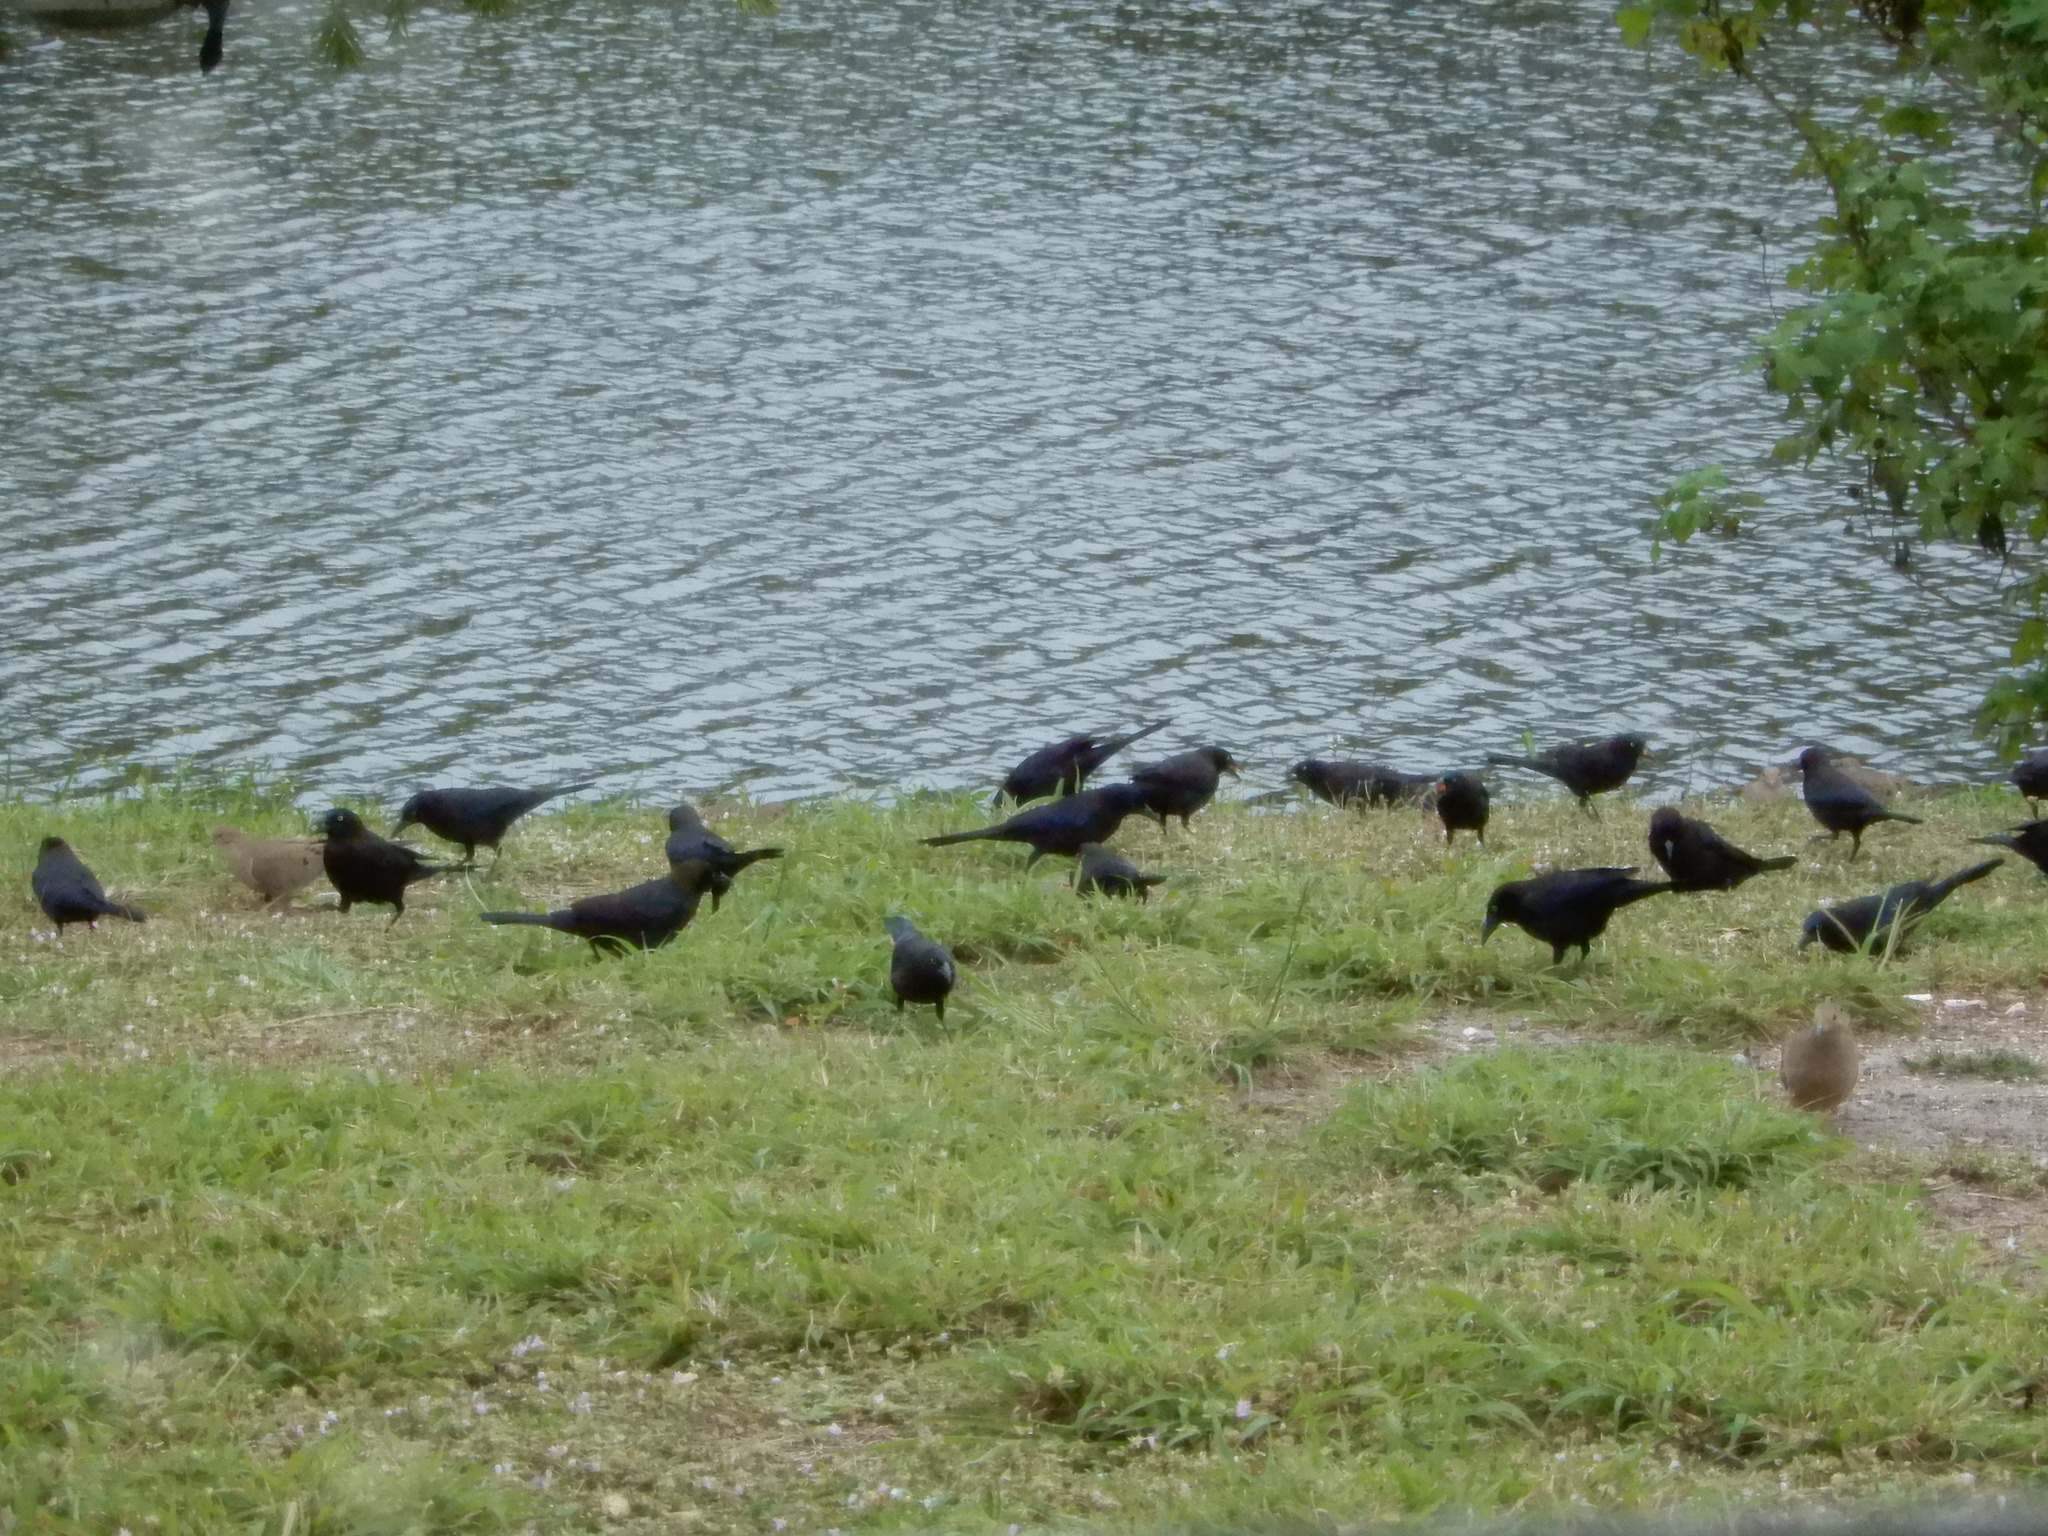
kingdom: Animalia
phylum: Chordata
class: Aves
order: Passeriformes
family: Icteridae
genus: Quiscalus
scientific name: Quiscalus quiscula
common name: Common grackle
